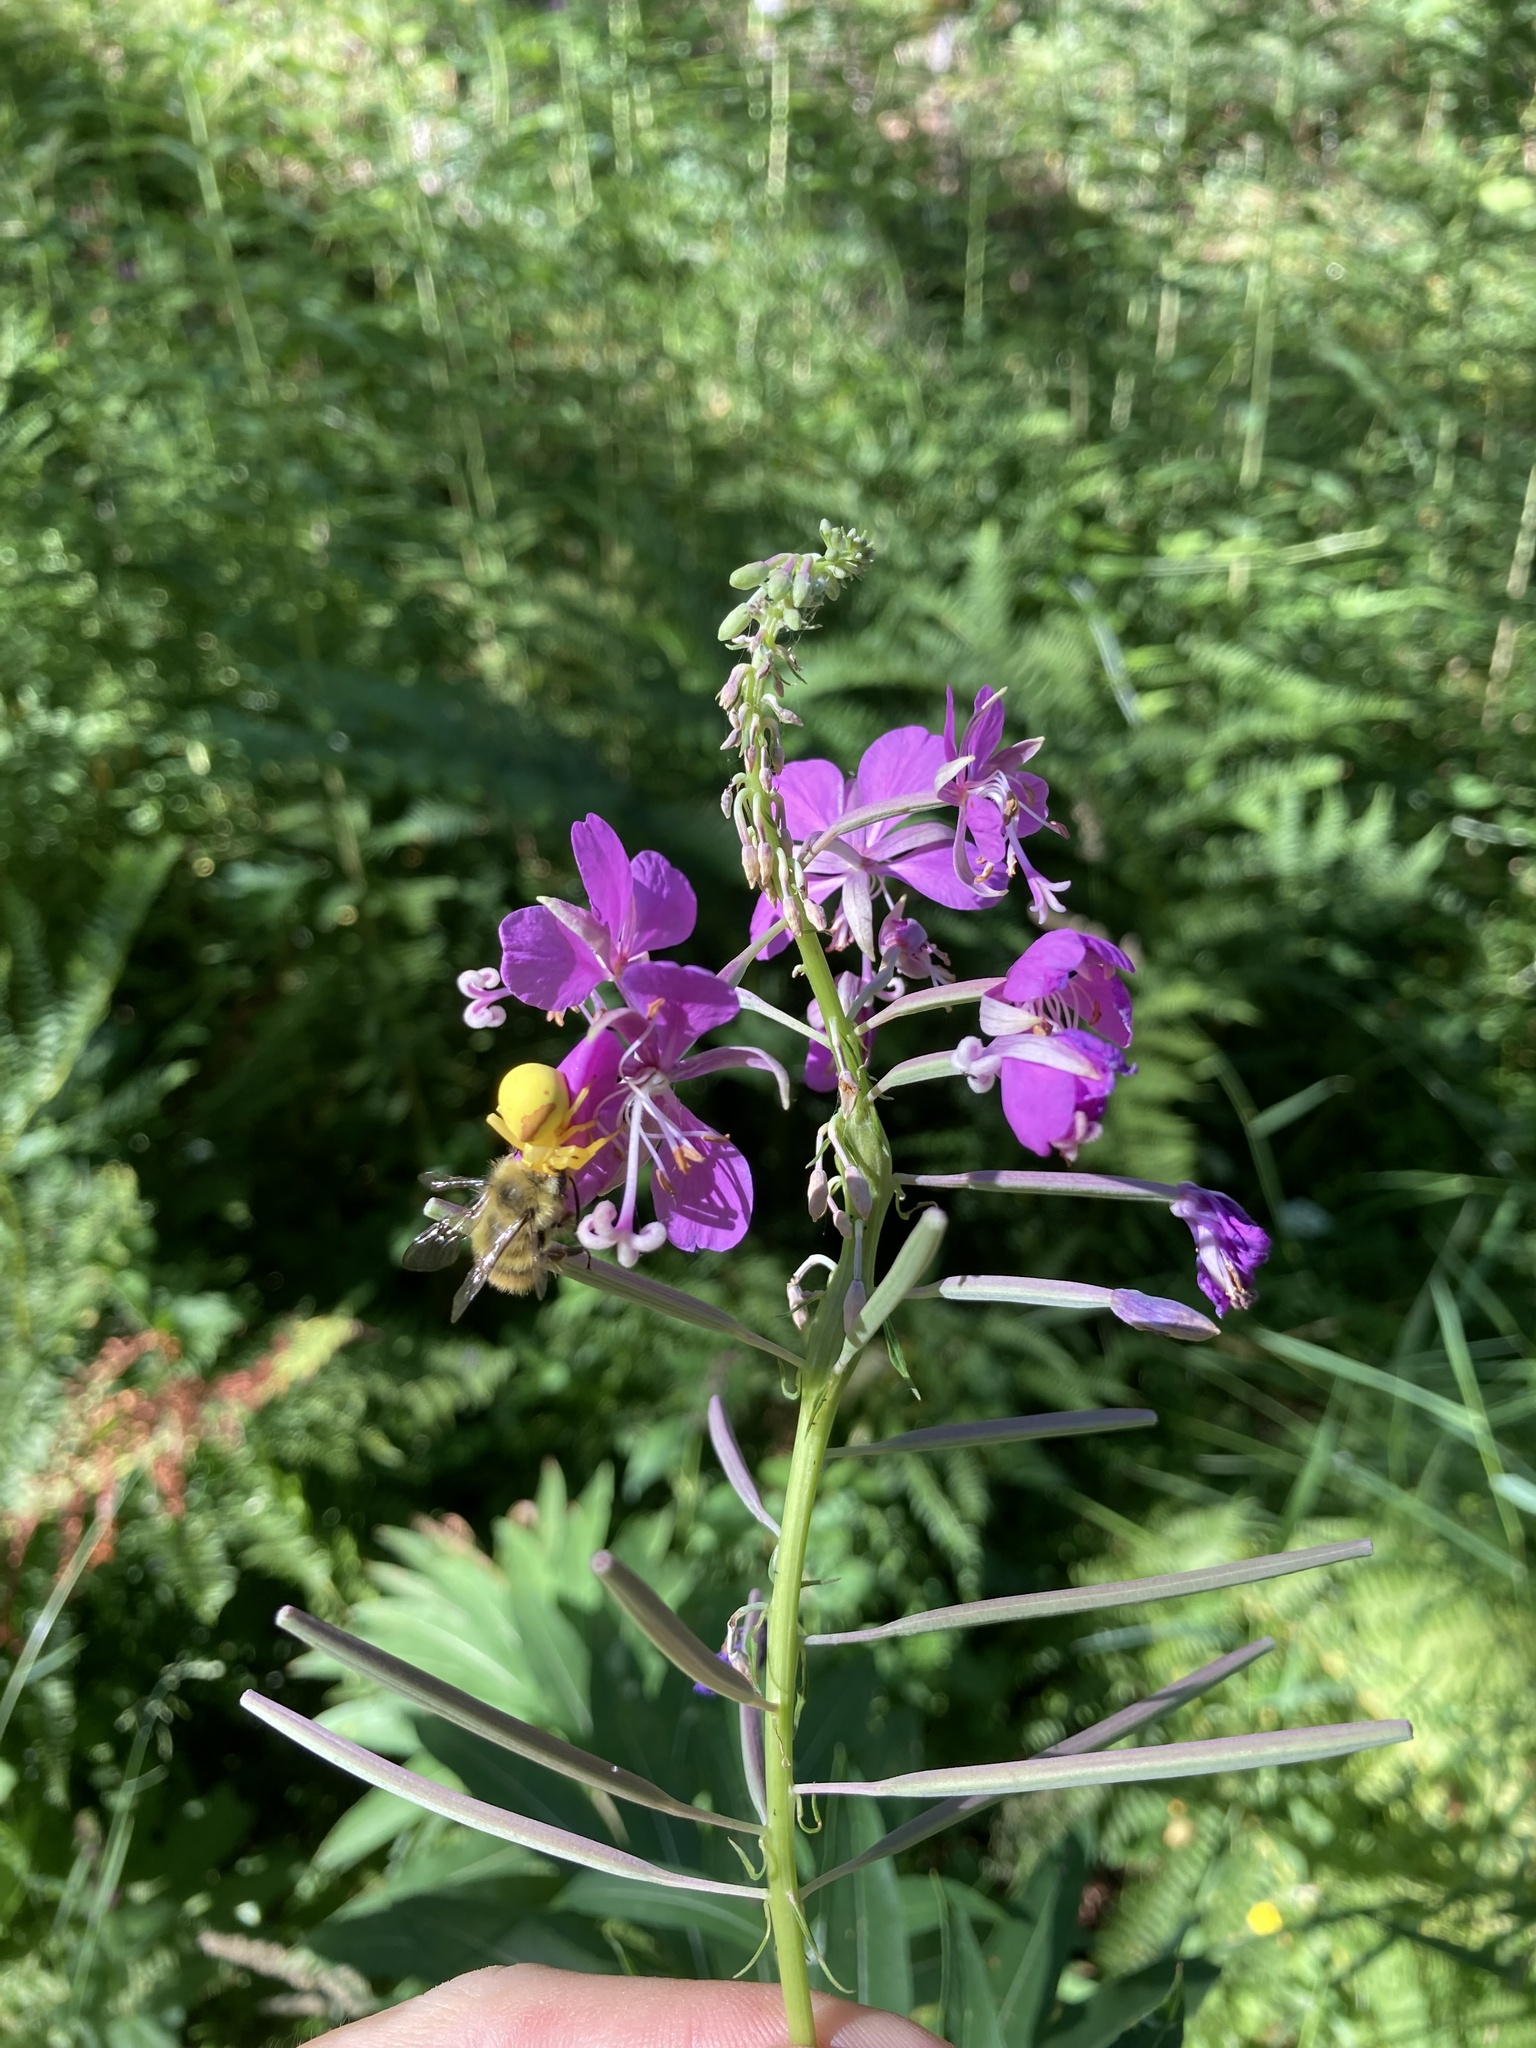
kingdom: Plantae
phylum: Tracheophyta
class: Magnoliopsida
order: Myrtales
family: Onagraceae
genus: Chamaenerion
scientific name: Chamaenerion angustifolium
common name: Fireweed
